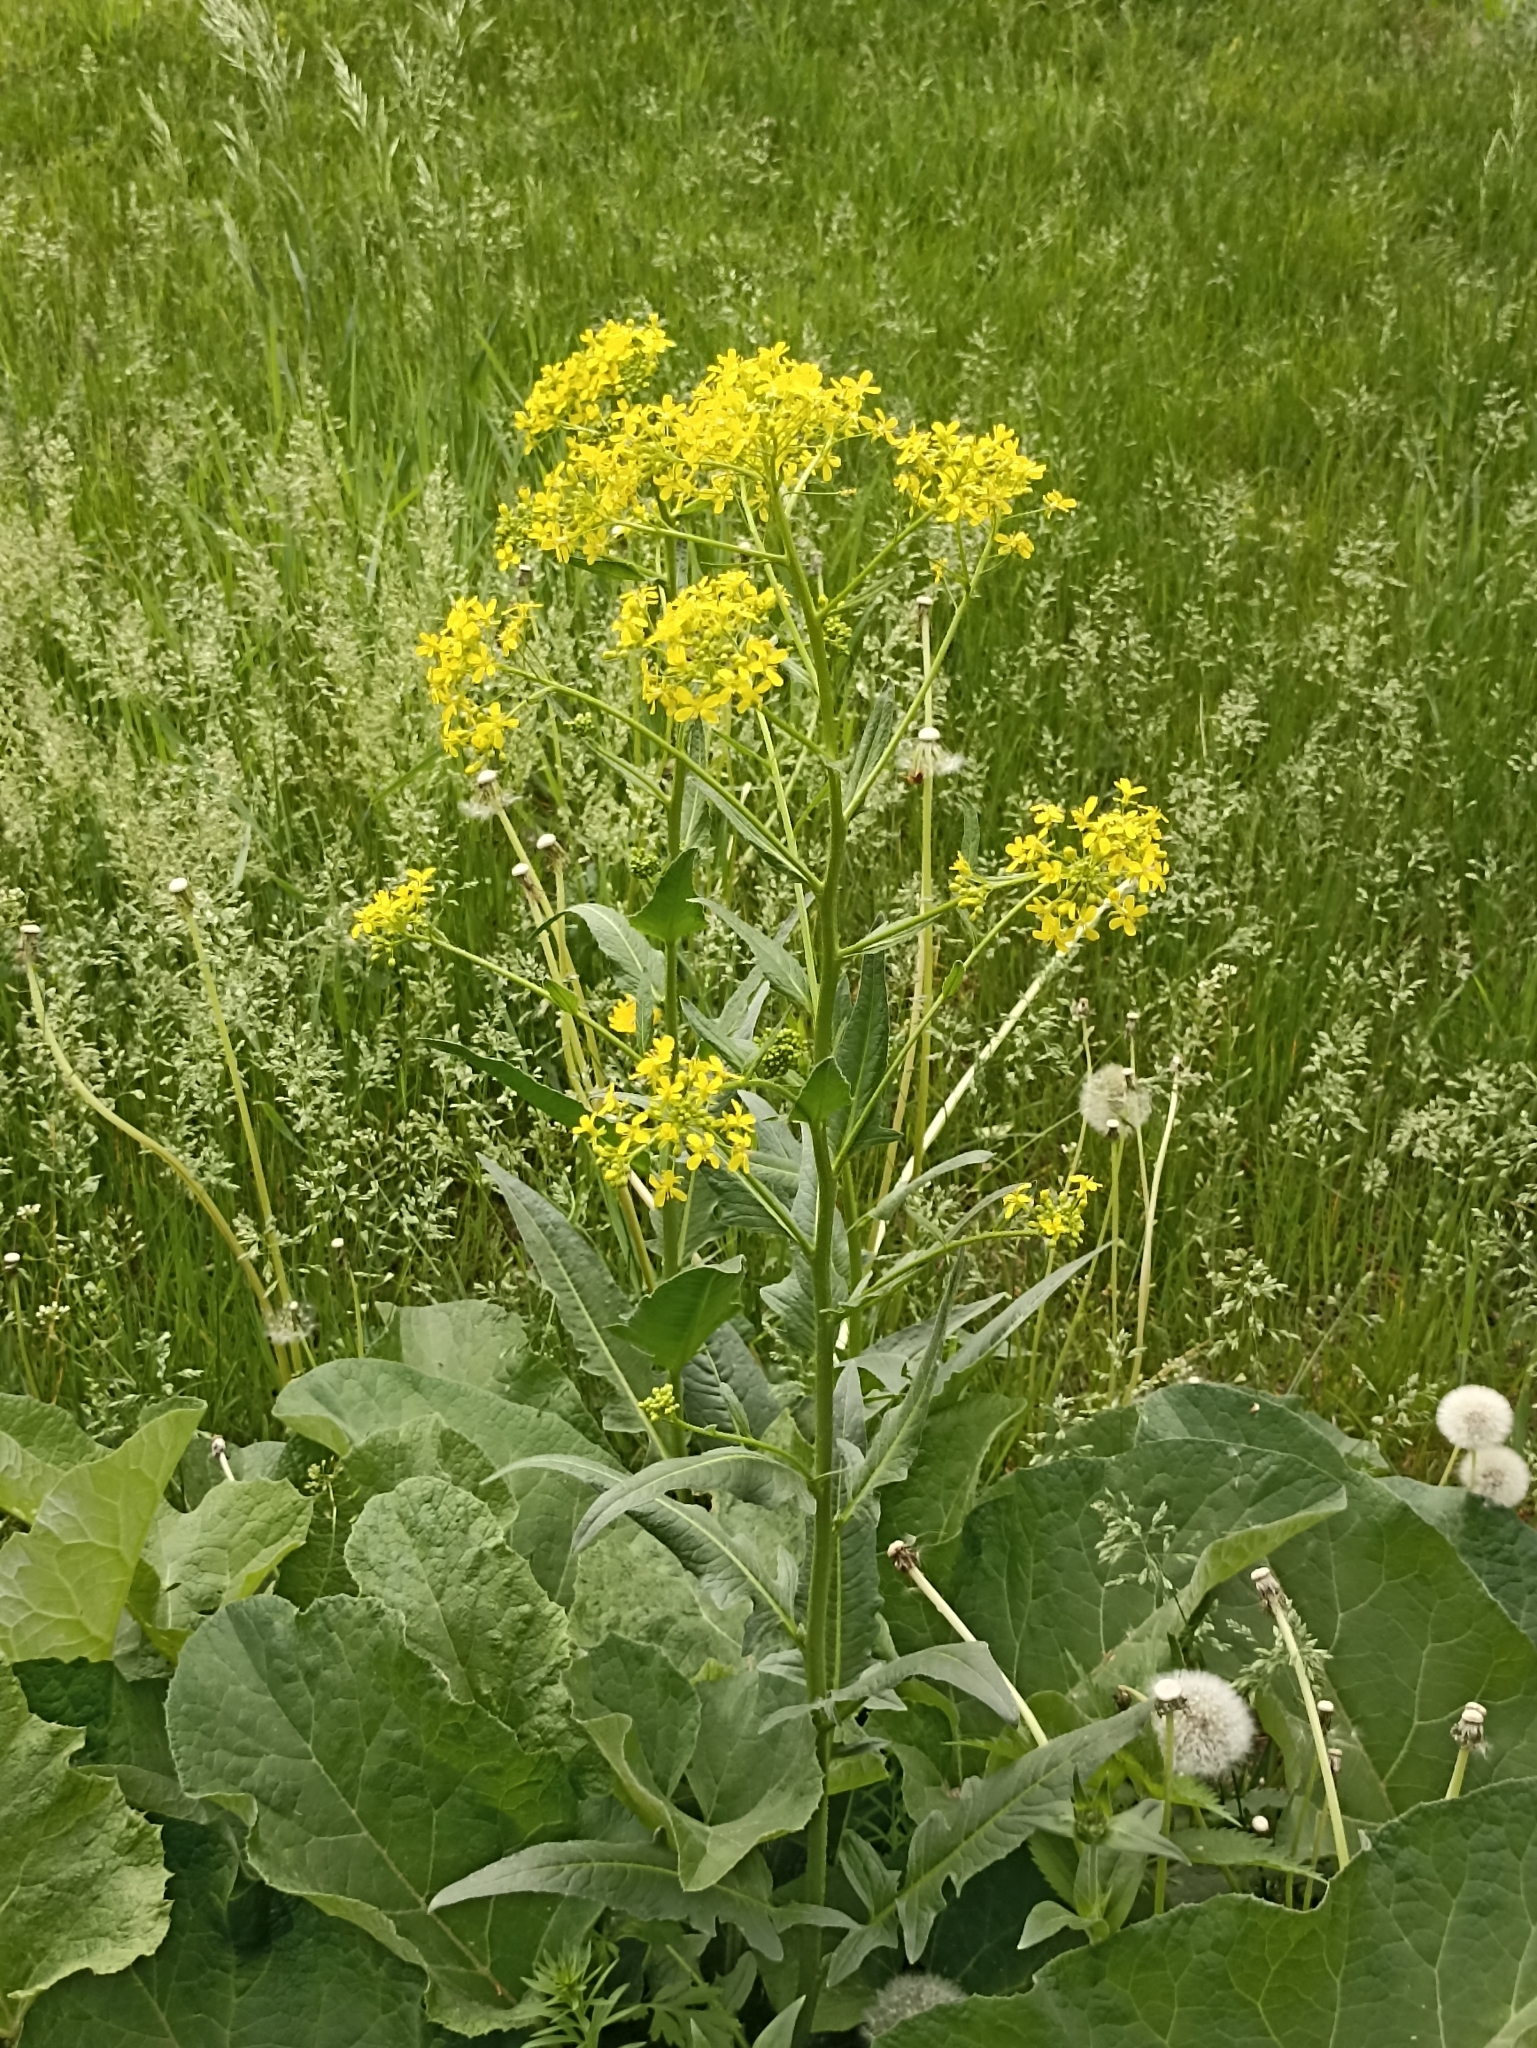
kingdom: Plantae
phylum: Tracheophyta
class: Magnoliopsida
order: Brassicales
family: Brassicaceae
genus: Bunias
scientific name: Bunias orientalis
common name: Warty-cabbage
